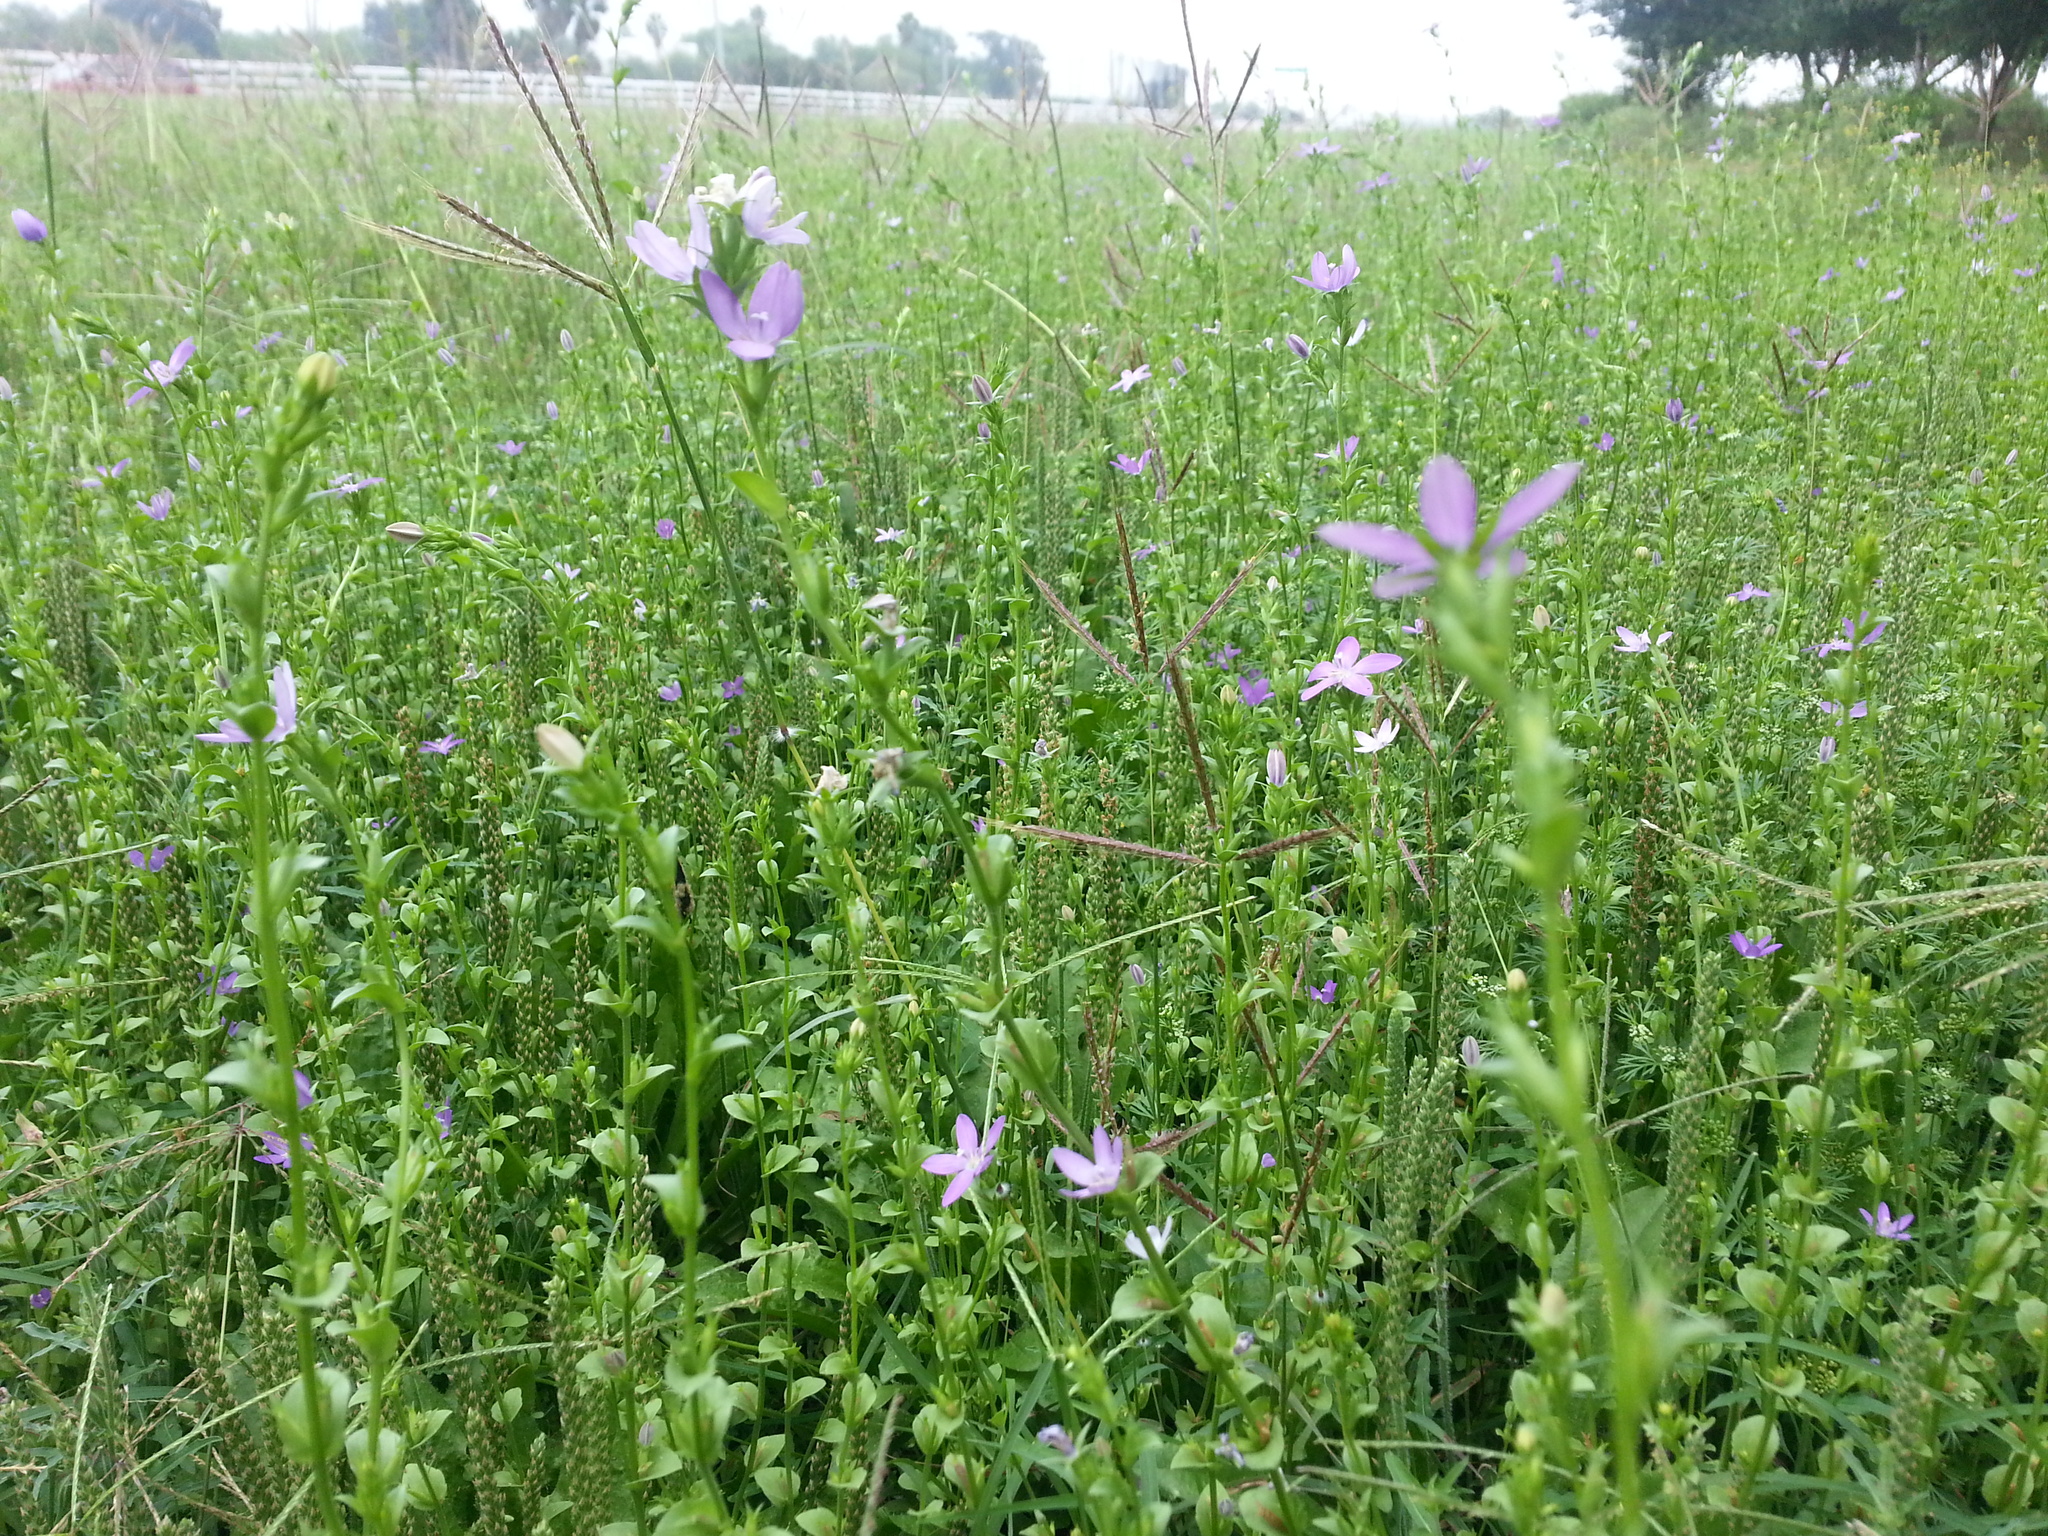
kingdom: Plantae
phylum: Tracheophyta
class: Magnoliopsida
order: Asterales
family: Campanulaceae
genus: Triodanis
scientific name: Triodanis biflora
